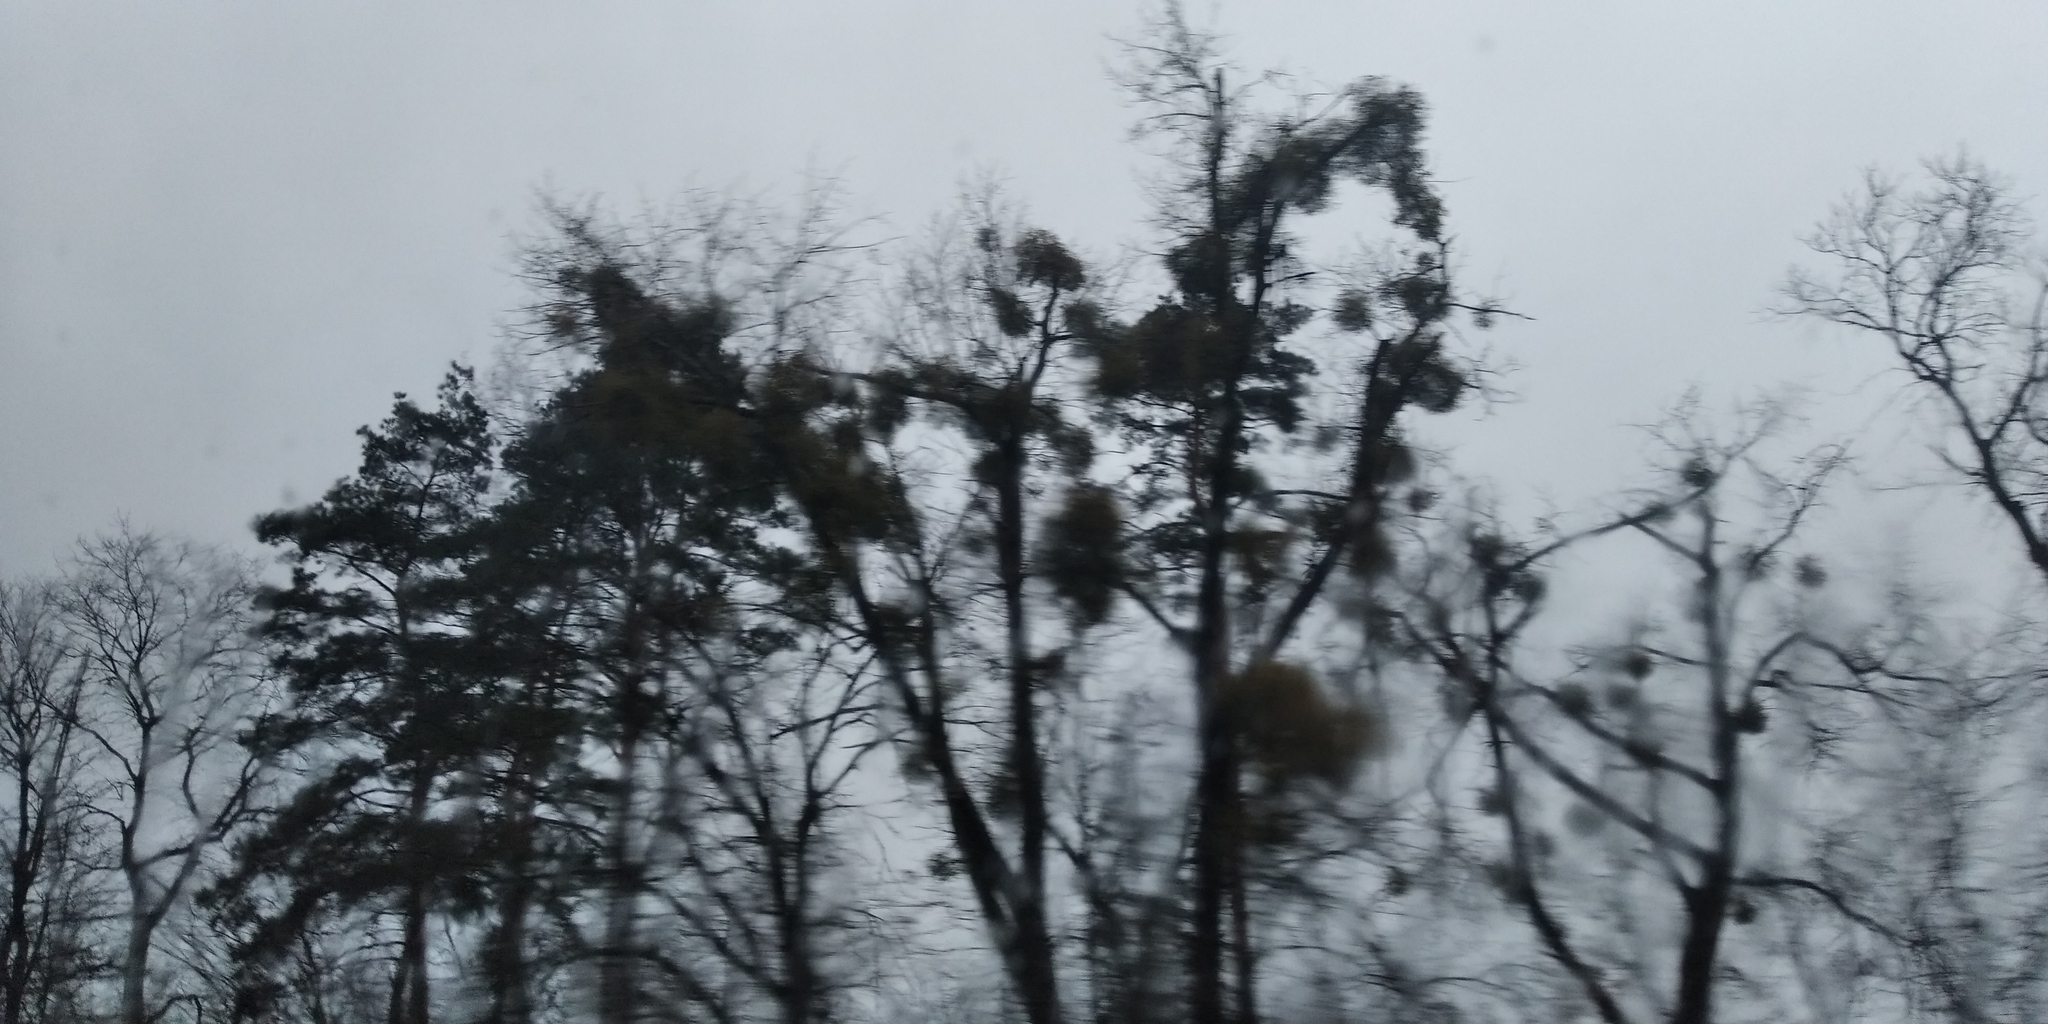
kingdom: Plantae
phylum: Tracheophyta
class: Magnoliopsida
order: Santalales
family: Viscaceae
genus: Viscum
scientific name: Viscum album
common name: Mistletoe
